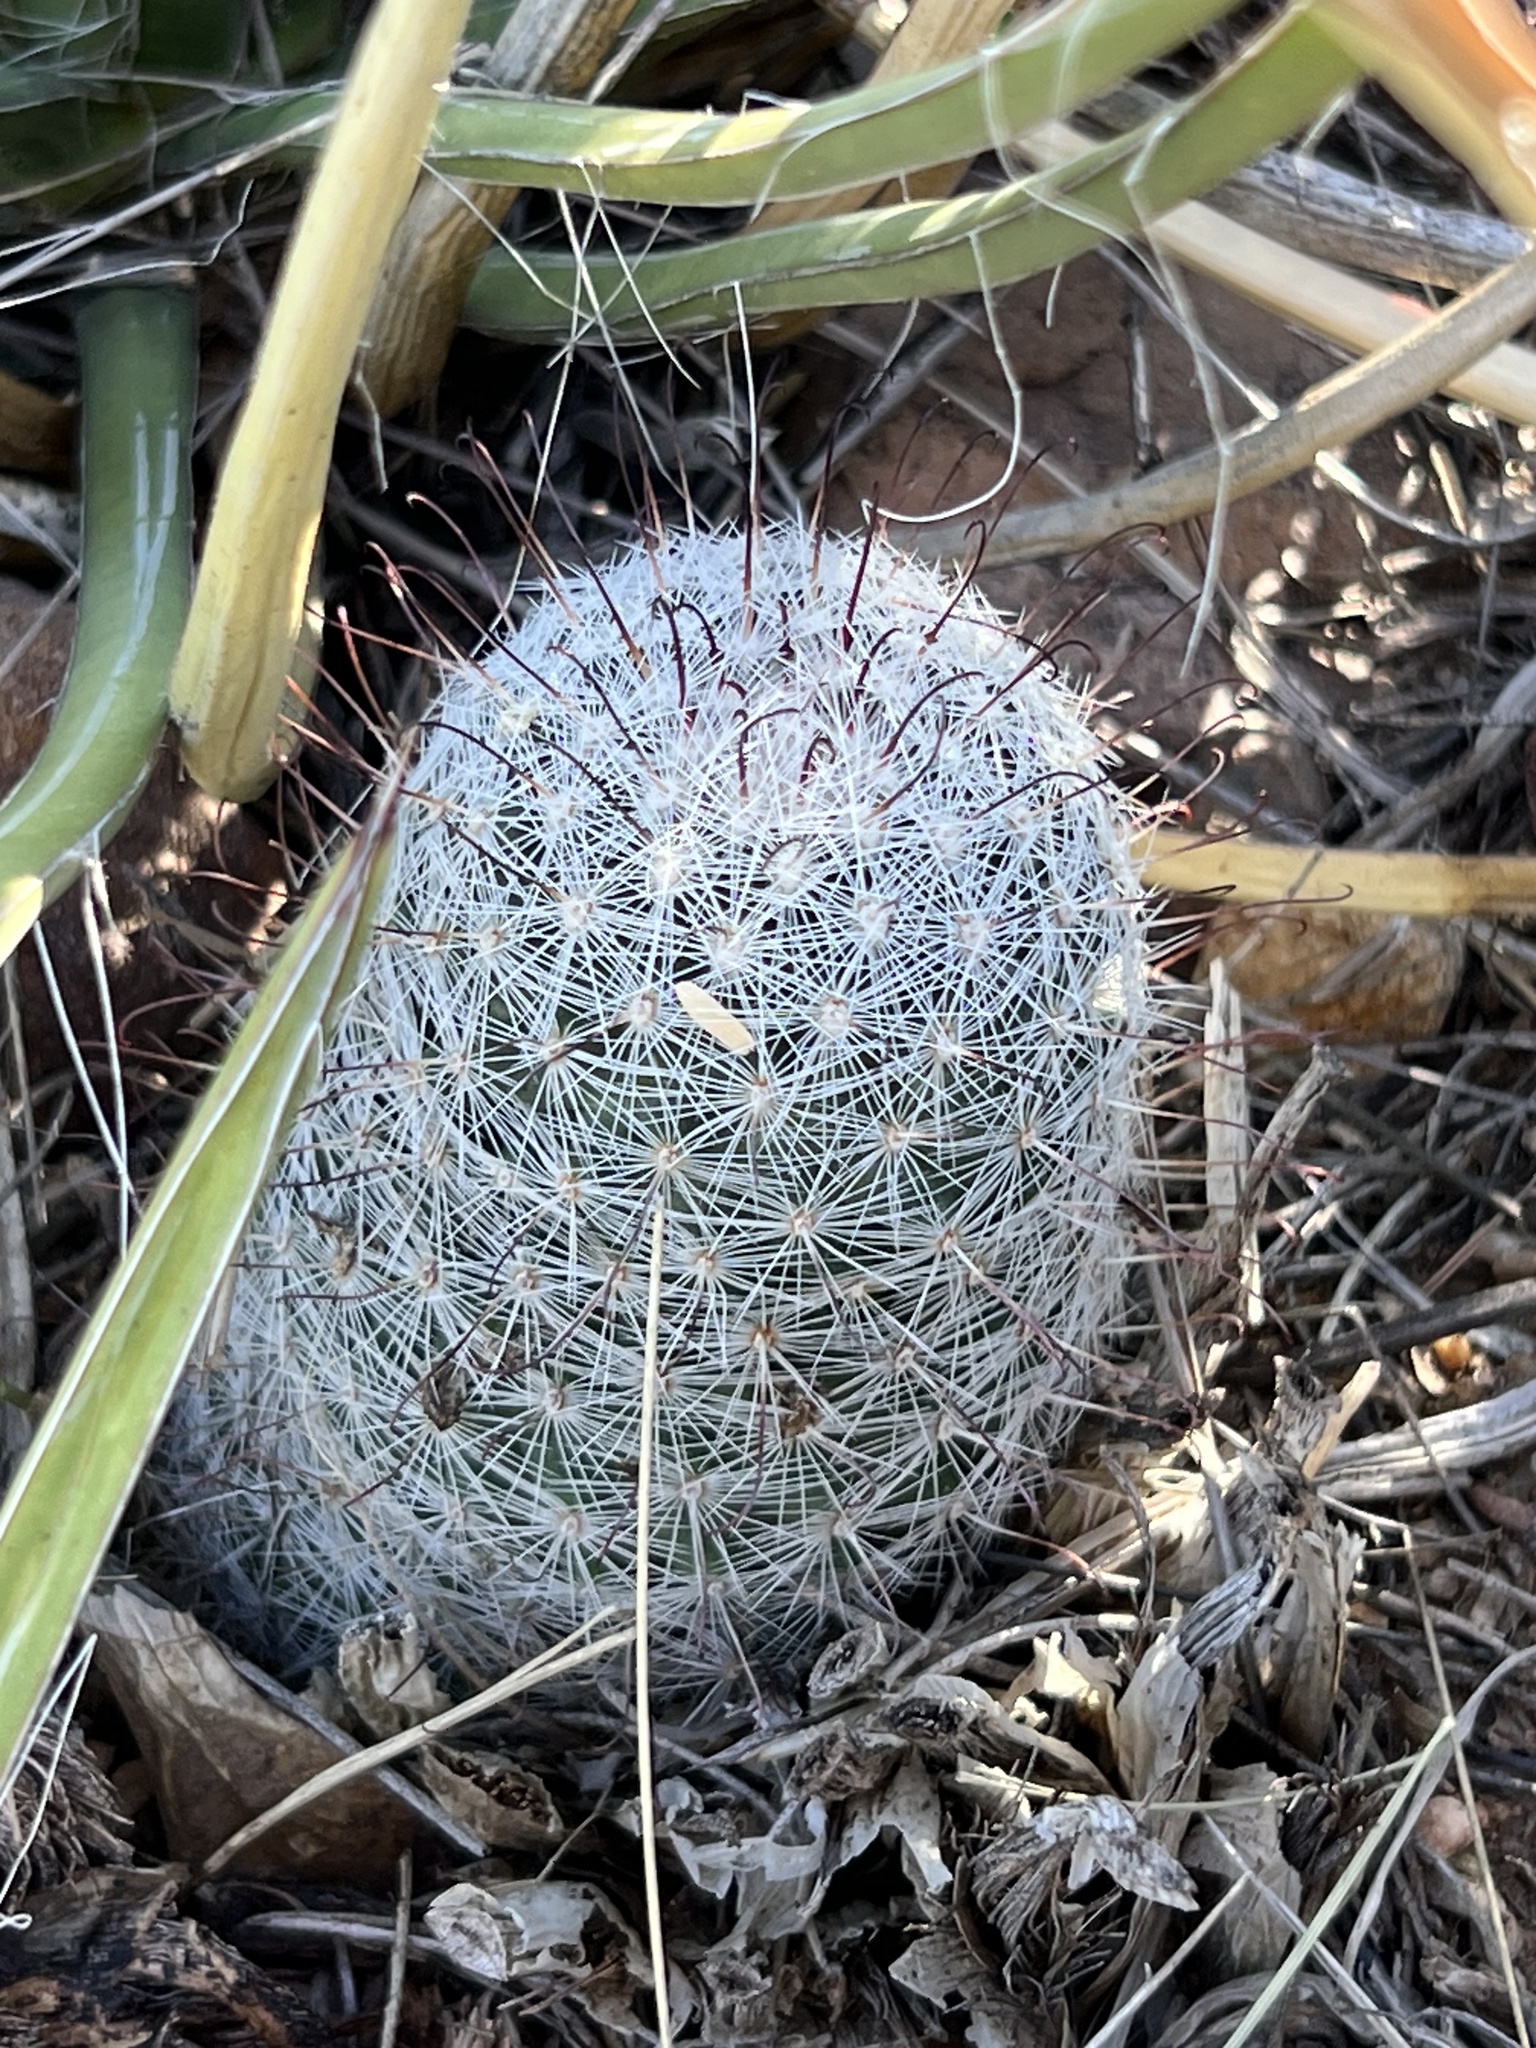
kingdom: Plantae
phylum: Tracheophyta
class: Magnoliopsida
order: Caryophyllales
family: Cactaceae
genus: Cochemiea
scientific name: Cochemiea grahamii
